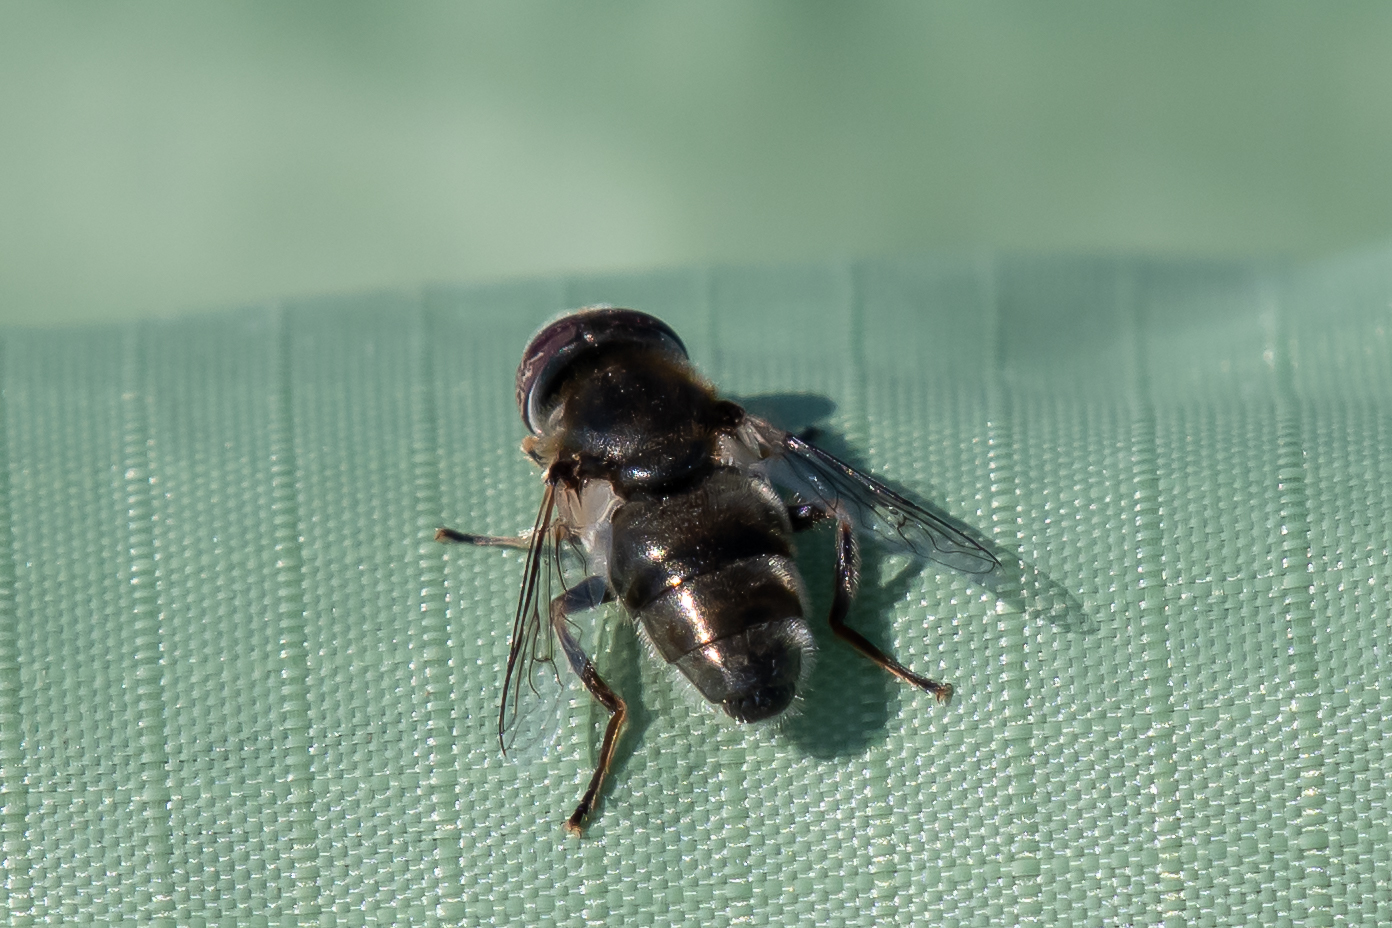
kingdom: Animalia
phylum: Arthropoda
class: Insecta
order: Diptera
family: Syrphidae
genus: Eristalinus
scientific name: Eristalinus aeneus
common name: Syrphid fly
